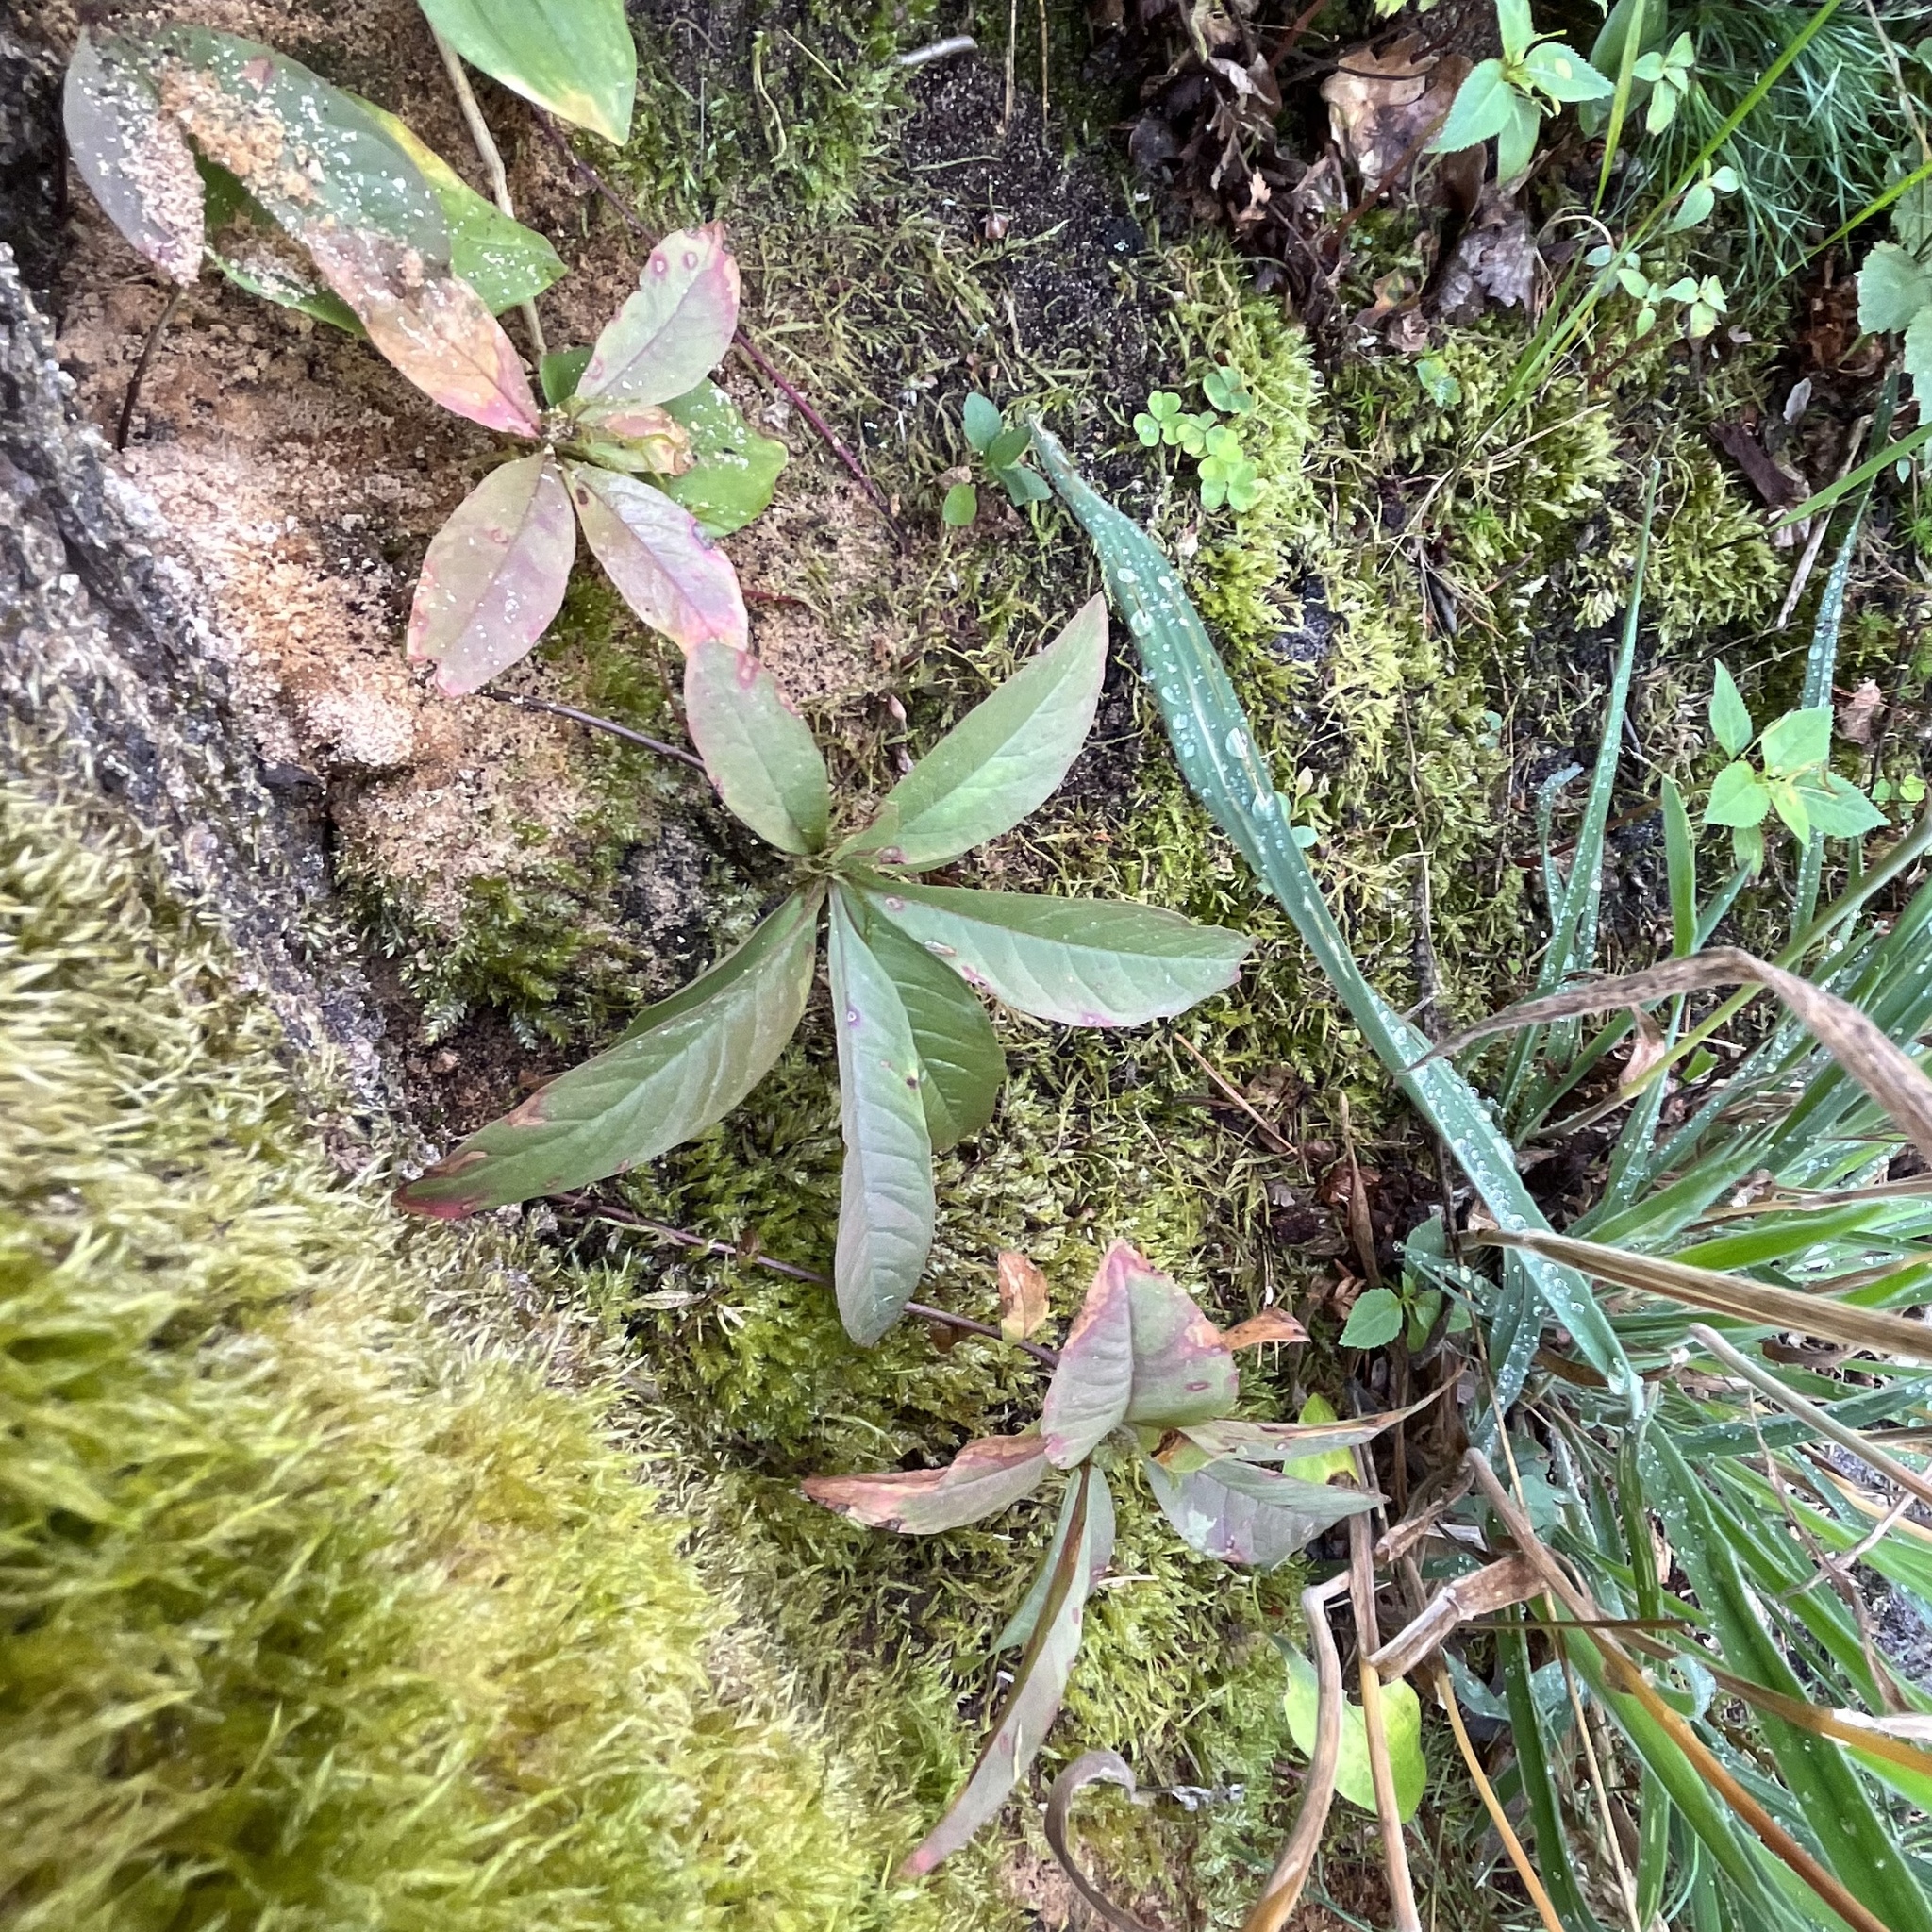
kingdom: Plantae
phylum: Tracheophyta
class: Magnoliopsida
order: Ericales
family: Primulaceae
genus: Lysimachia
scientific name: Lysimachia europaea
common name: Arctic starflower
